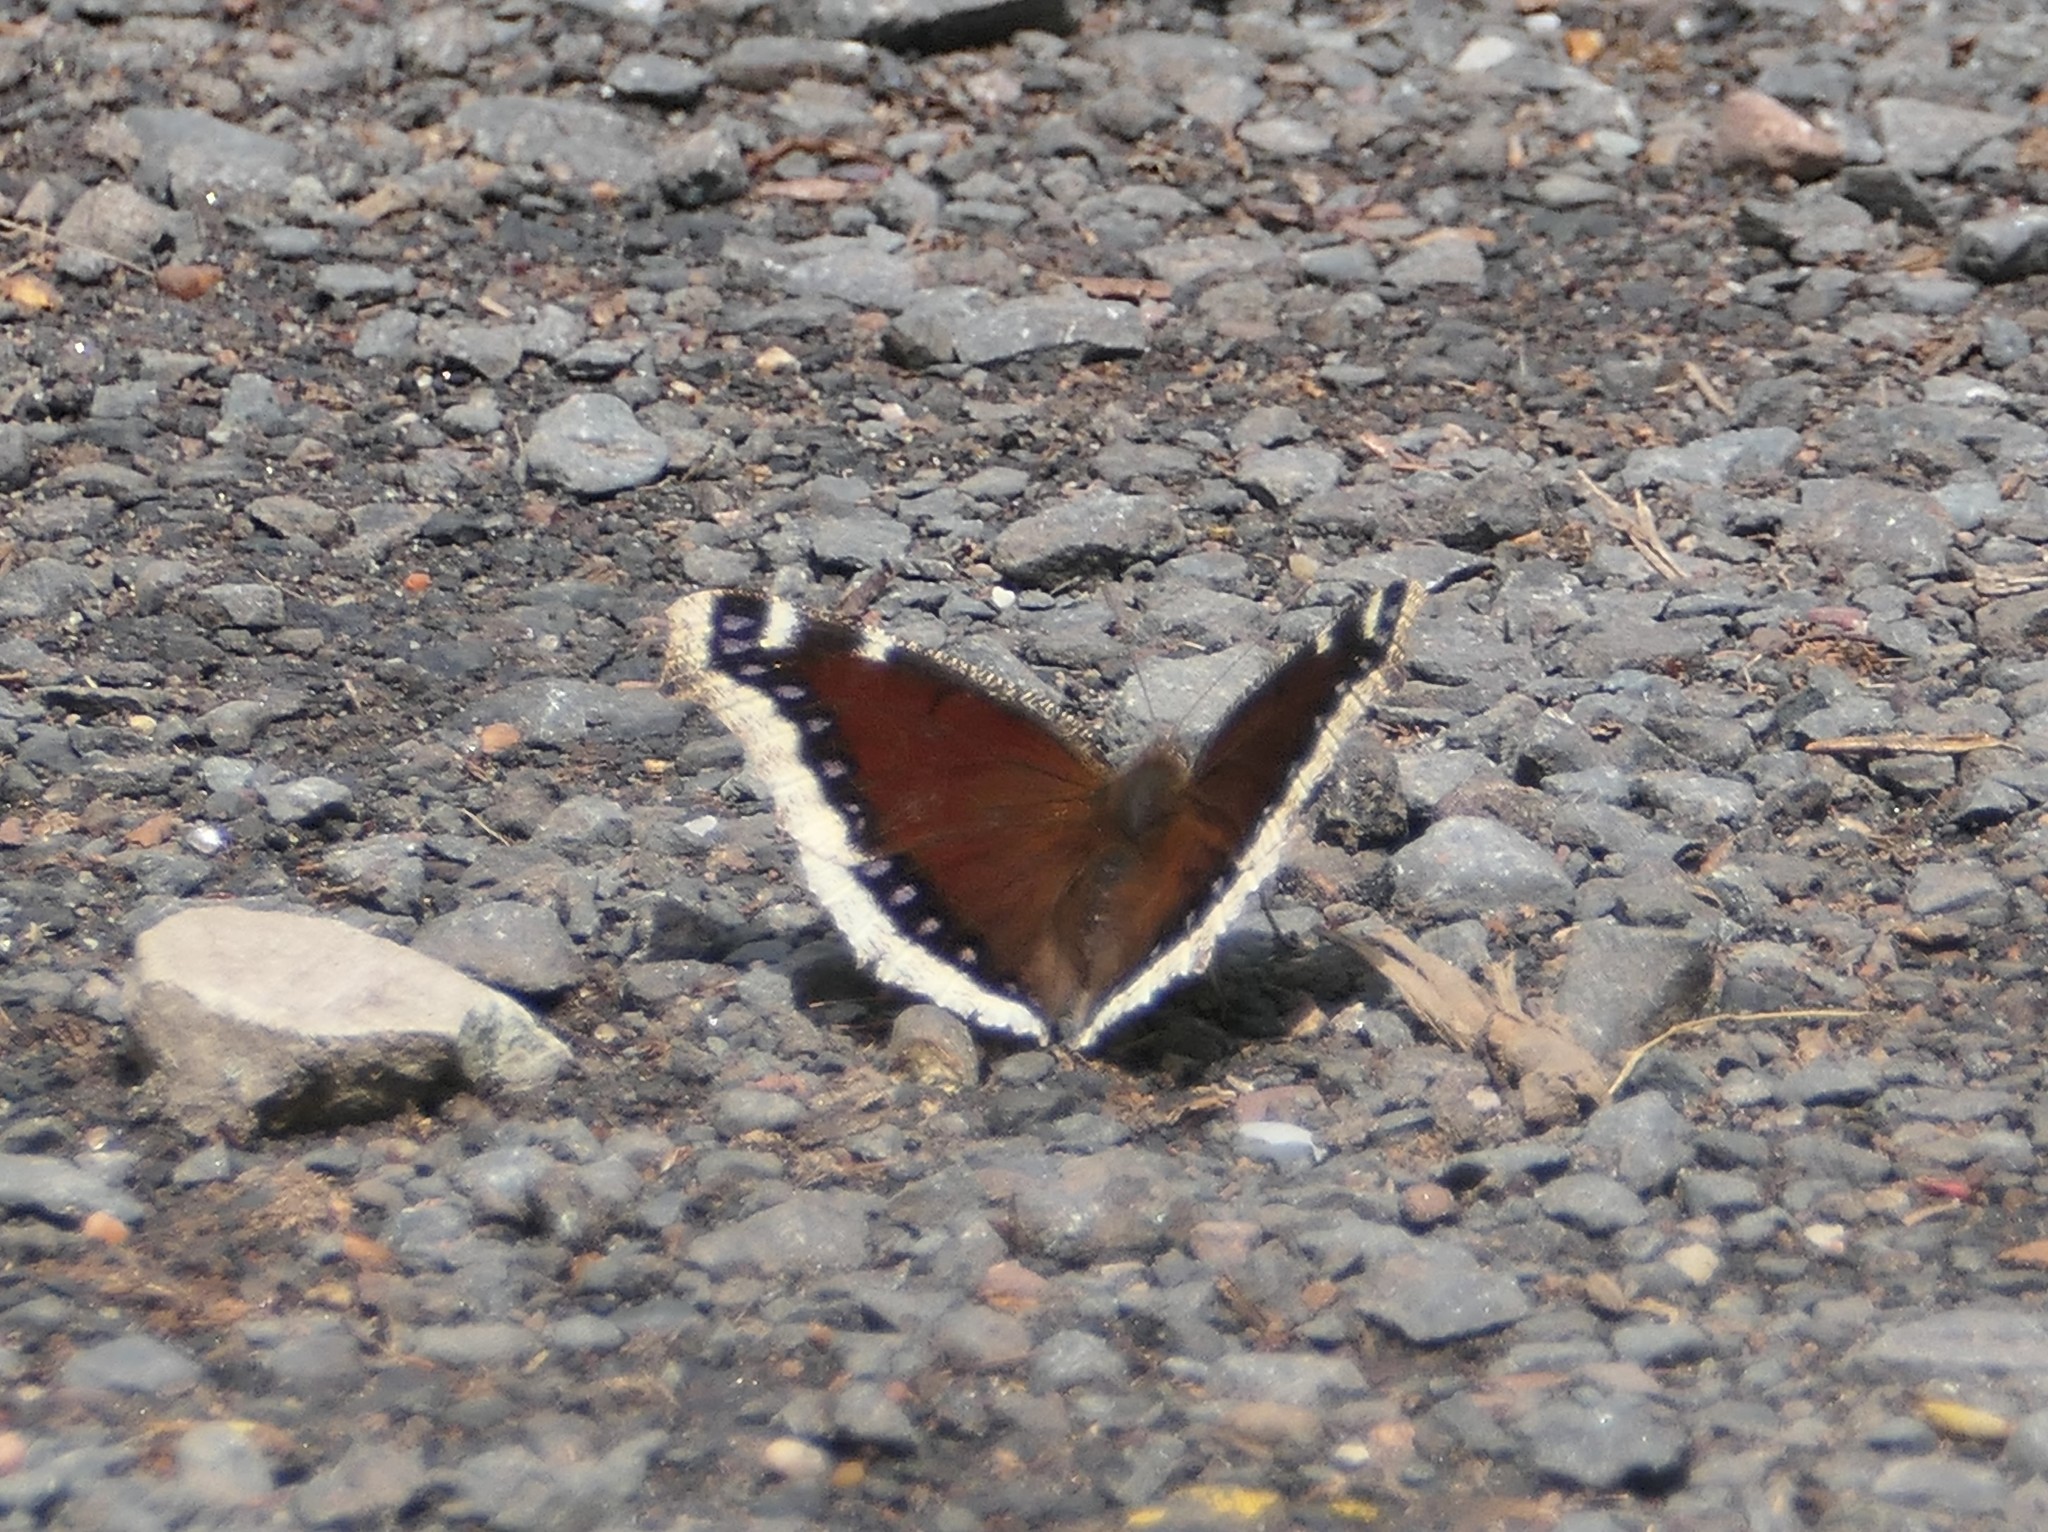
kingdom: Animalia
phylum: Arthropoda
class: Insecta
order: Lepidoptera
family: Nymphalidae
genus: Nymphalis
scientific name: Nymphalis antiopa
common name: Camberwell beauty
